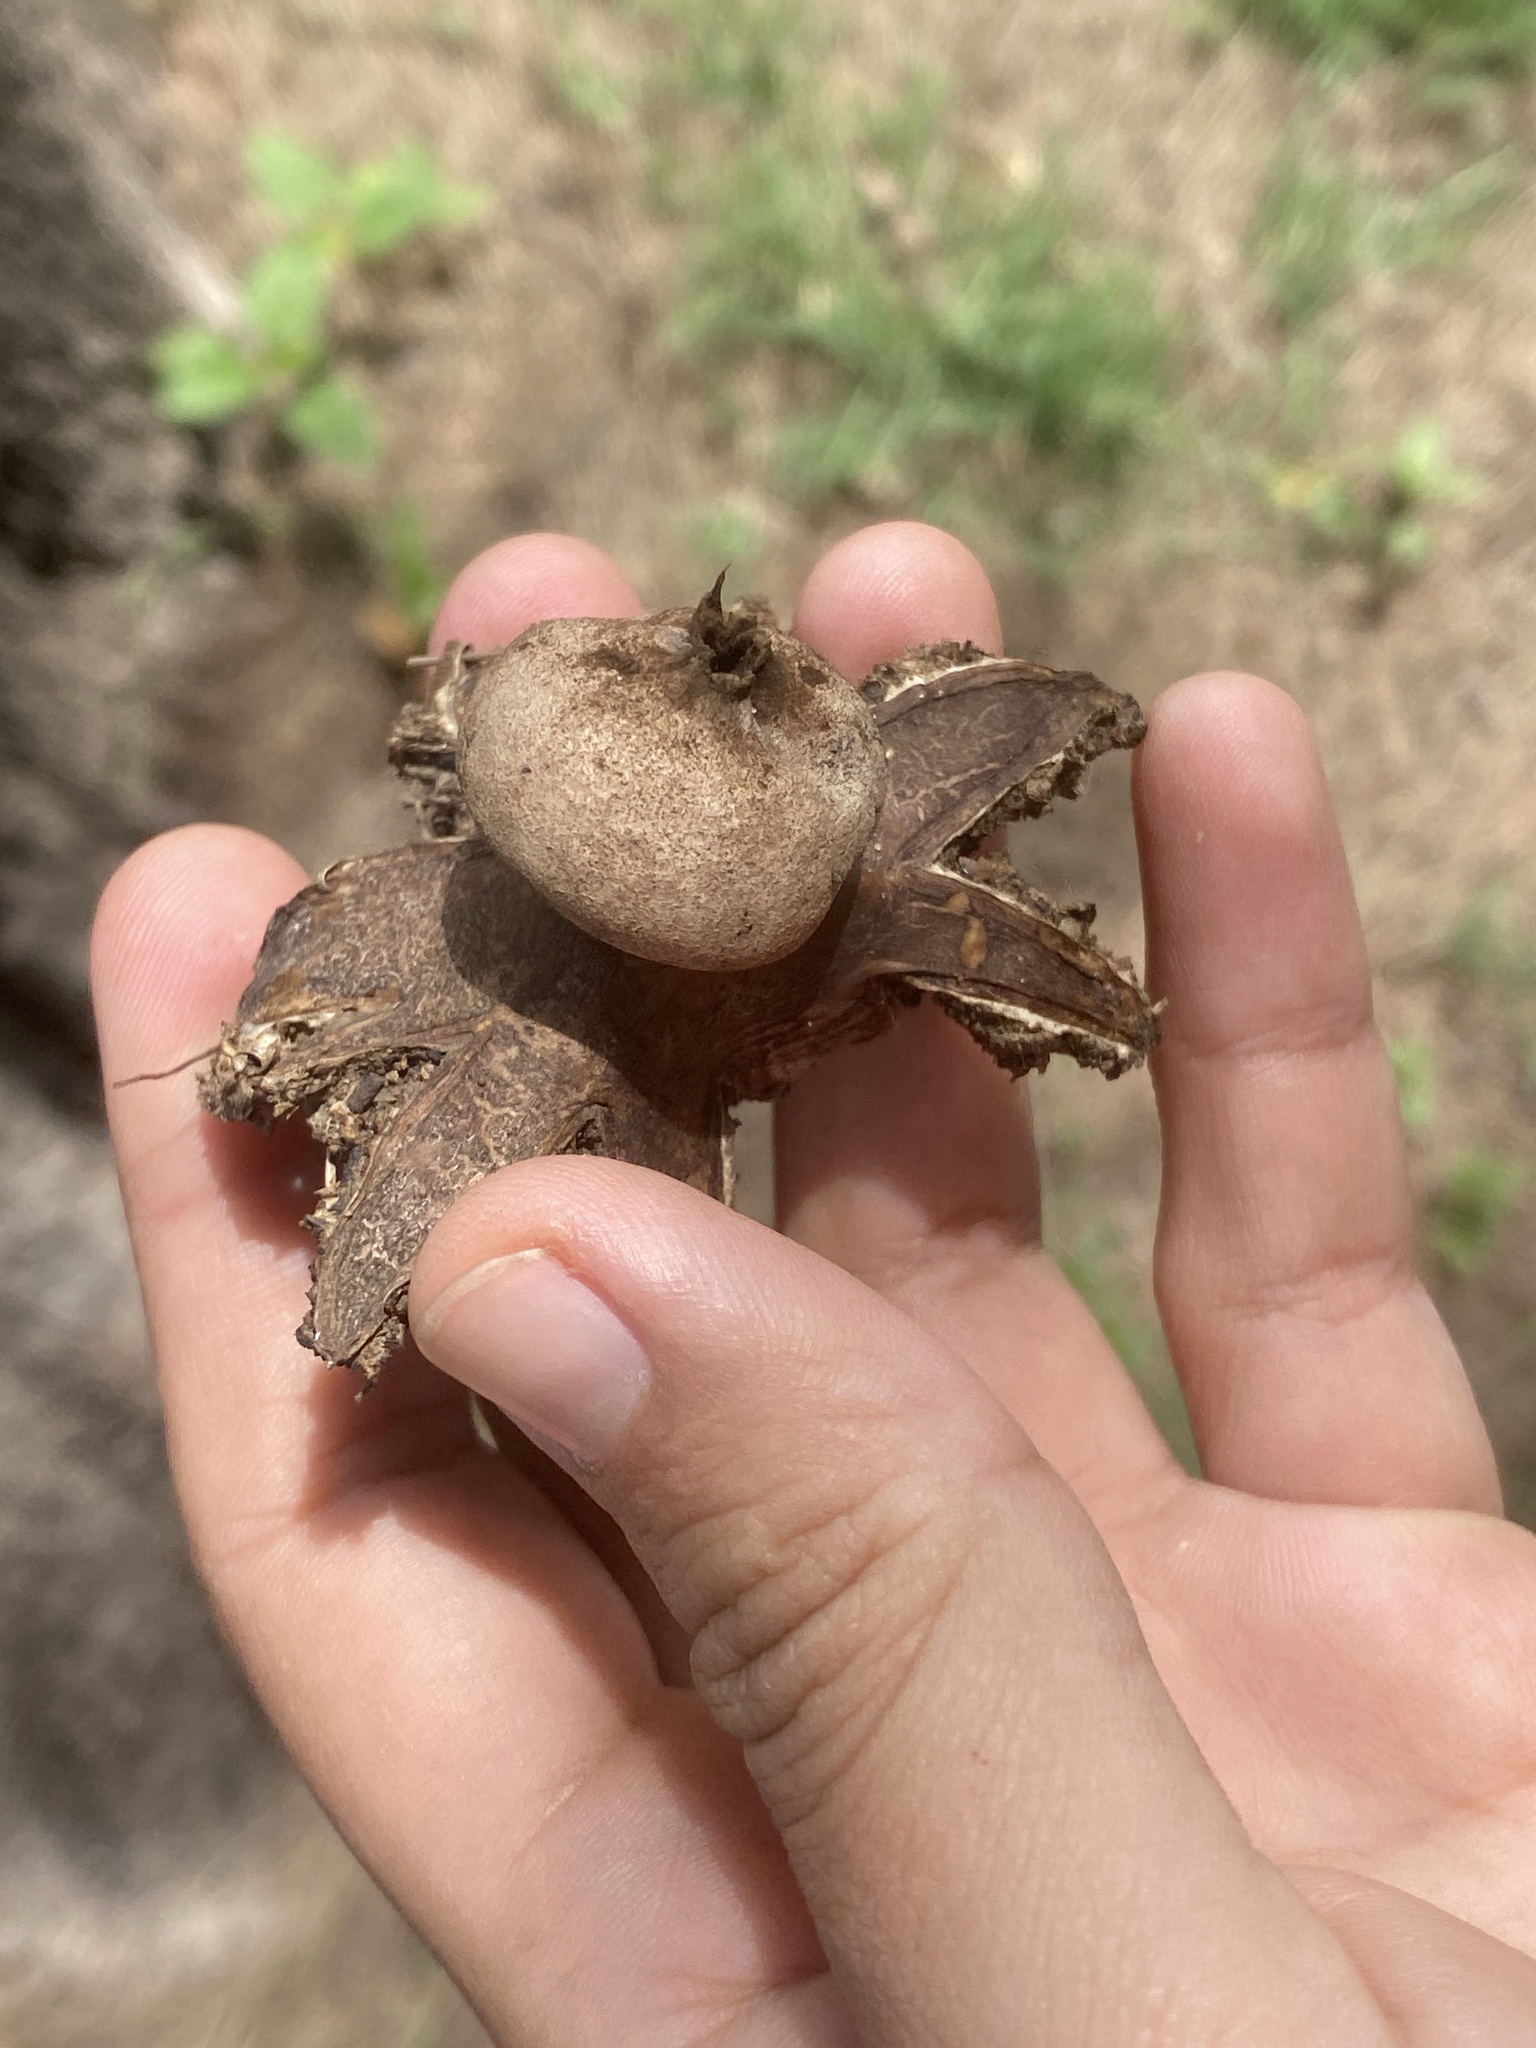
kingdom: Fungi
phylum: Basidiomycota
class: Agaricomycetes
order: Geastrales
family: Geastraceae
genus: Geastrum
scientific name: Geastrum hieronymi
